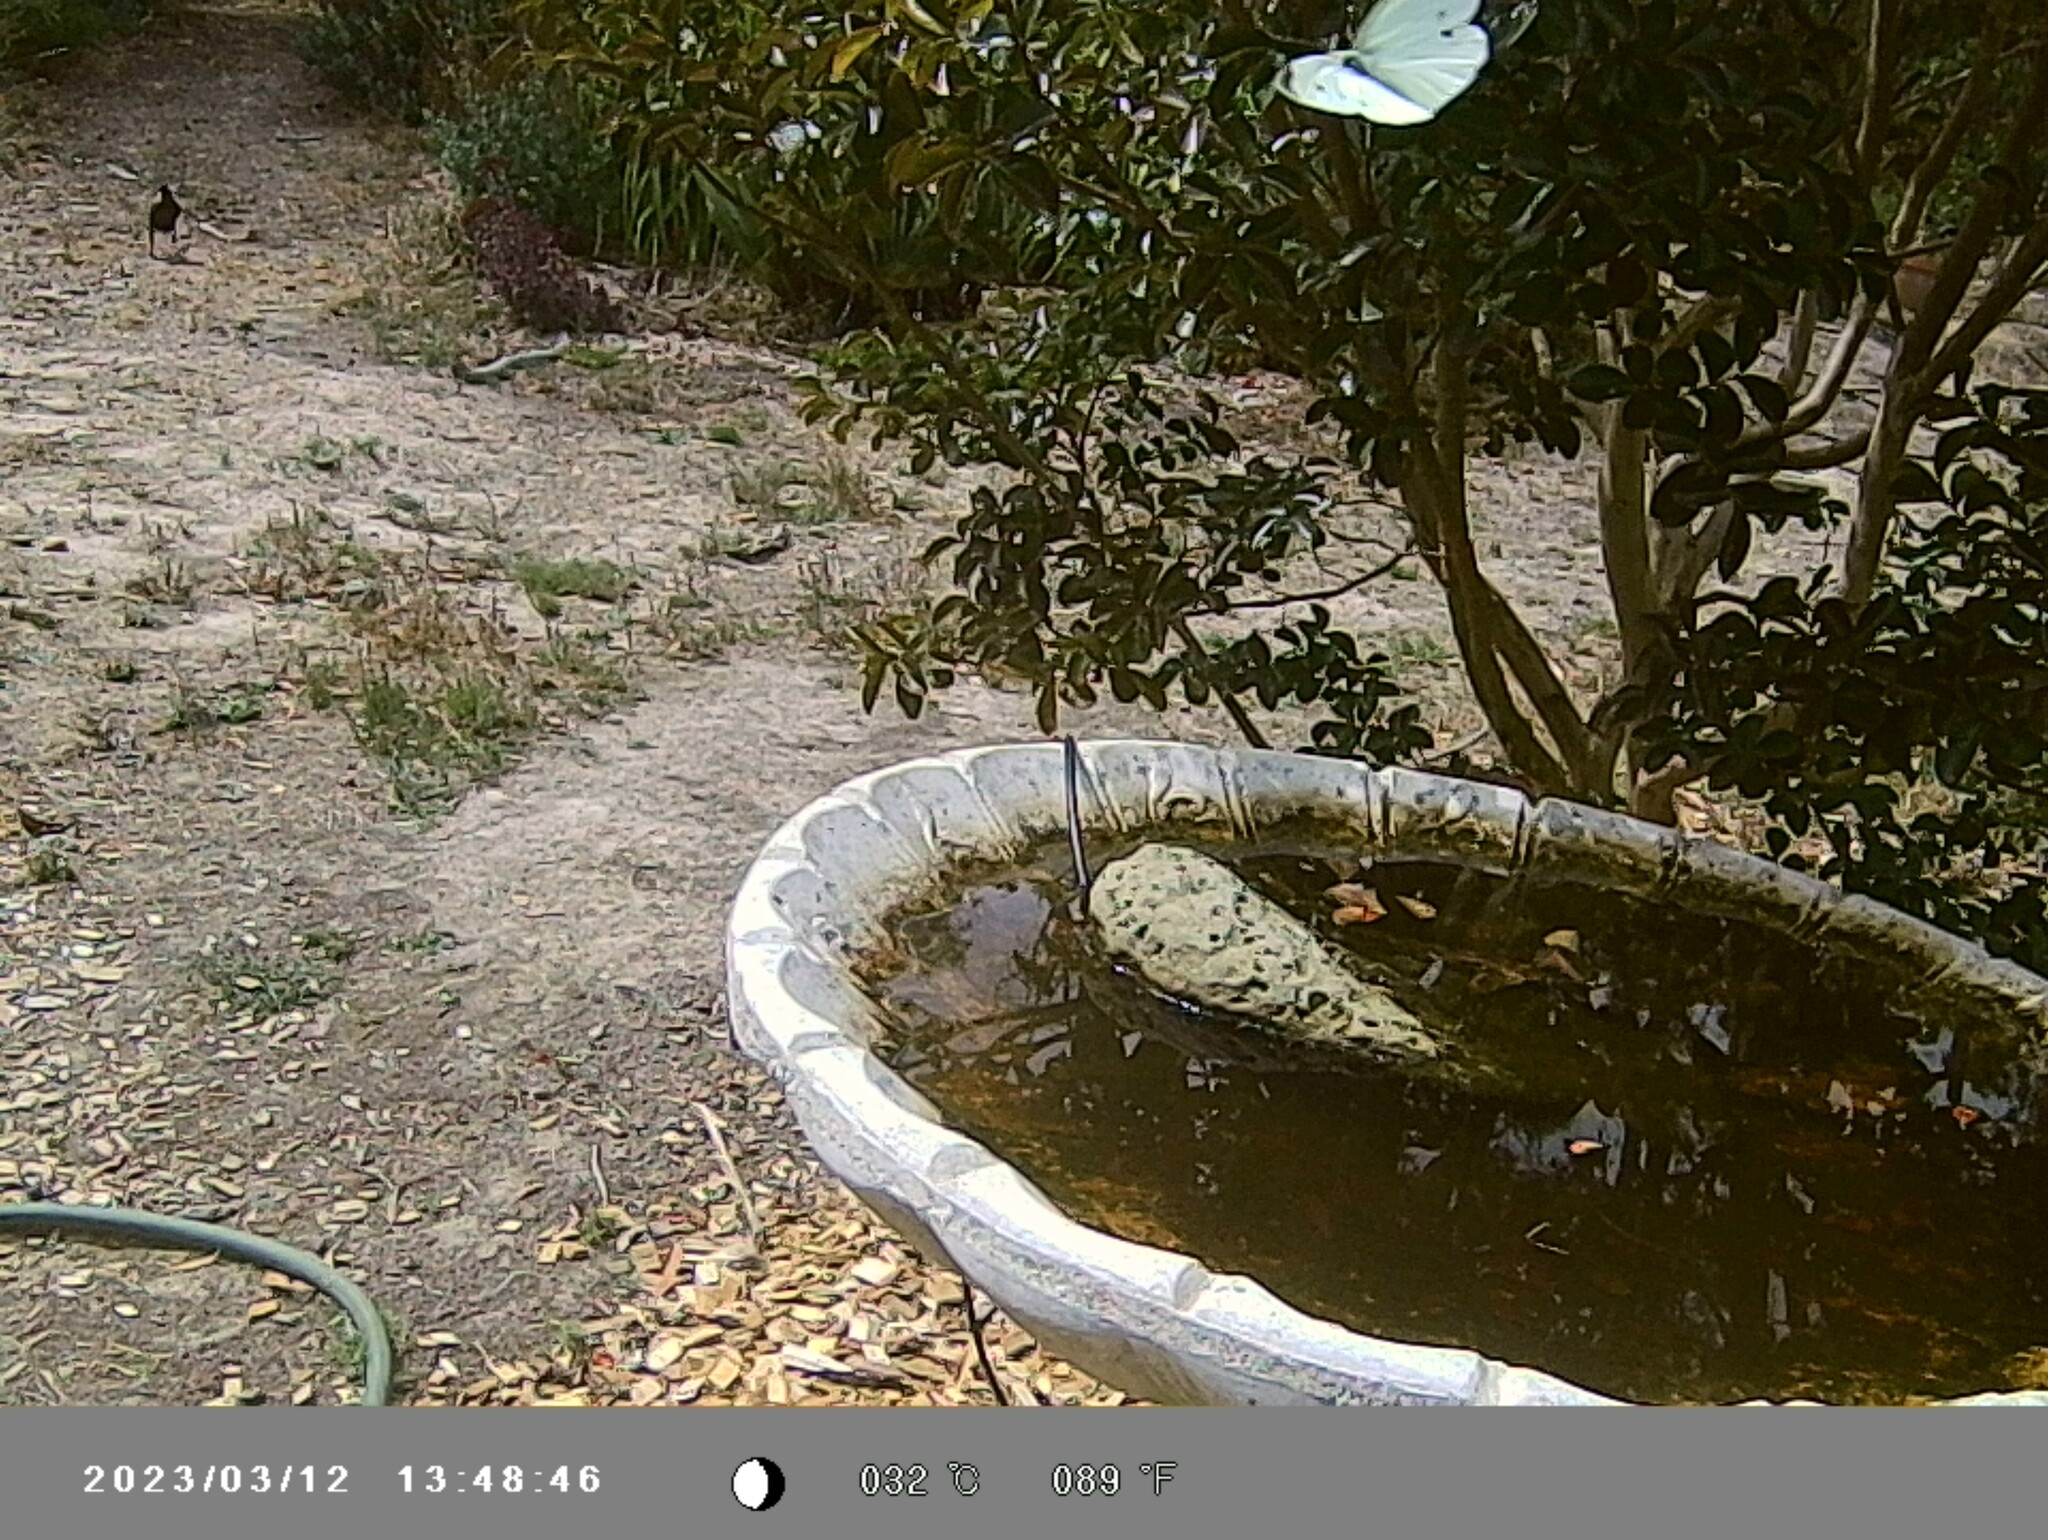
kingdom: Animalia
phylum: Arthropoda
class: Insecta
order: Lepidoptera
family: Pieridae
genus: Pieris
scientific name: Pieris rapae
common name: Small white
